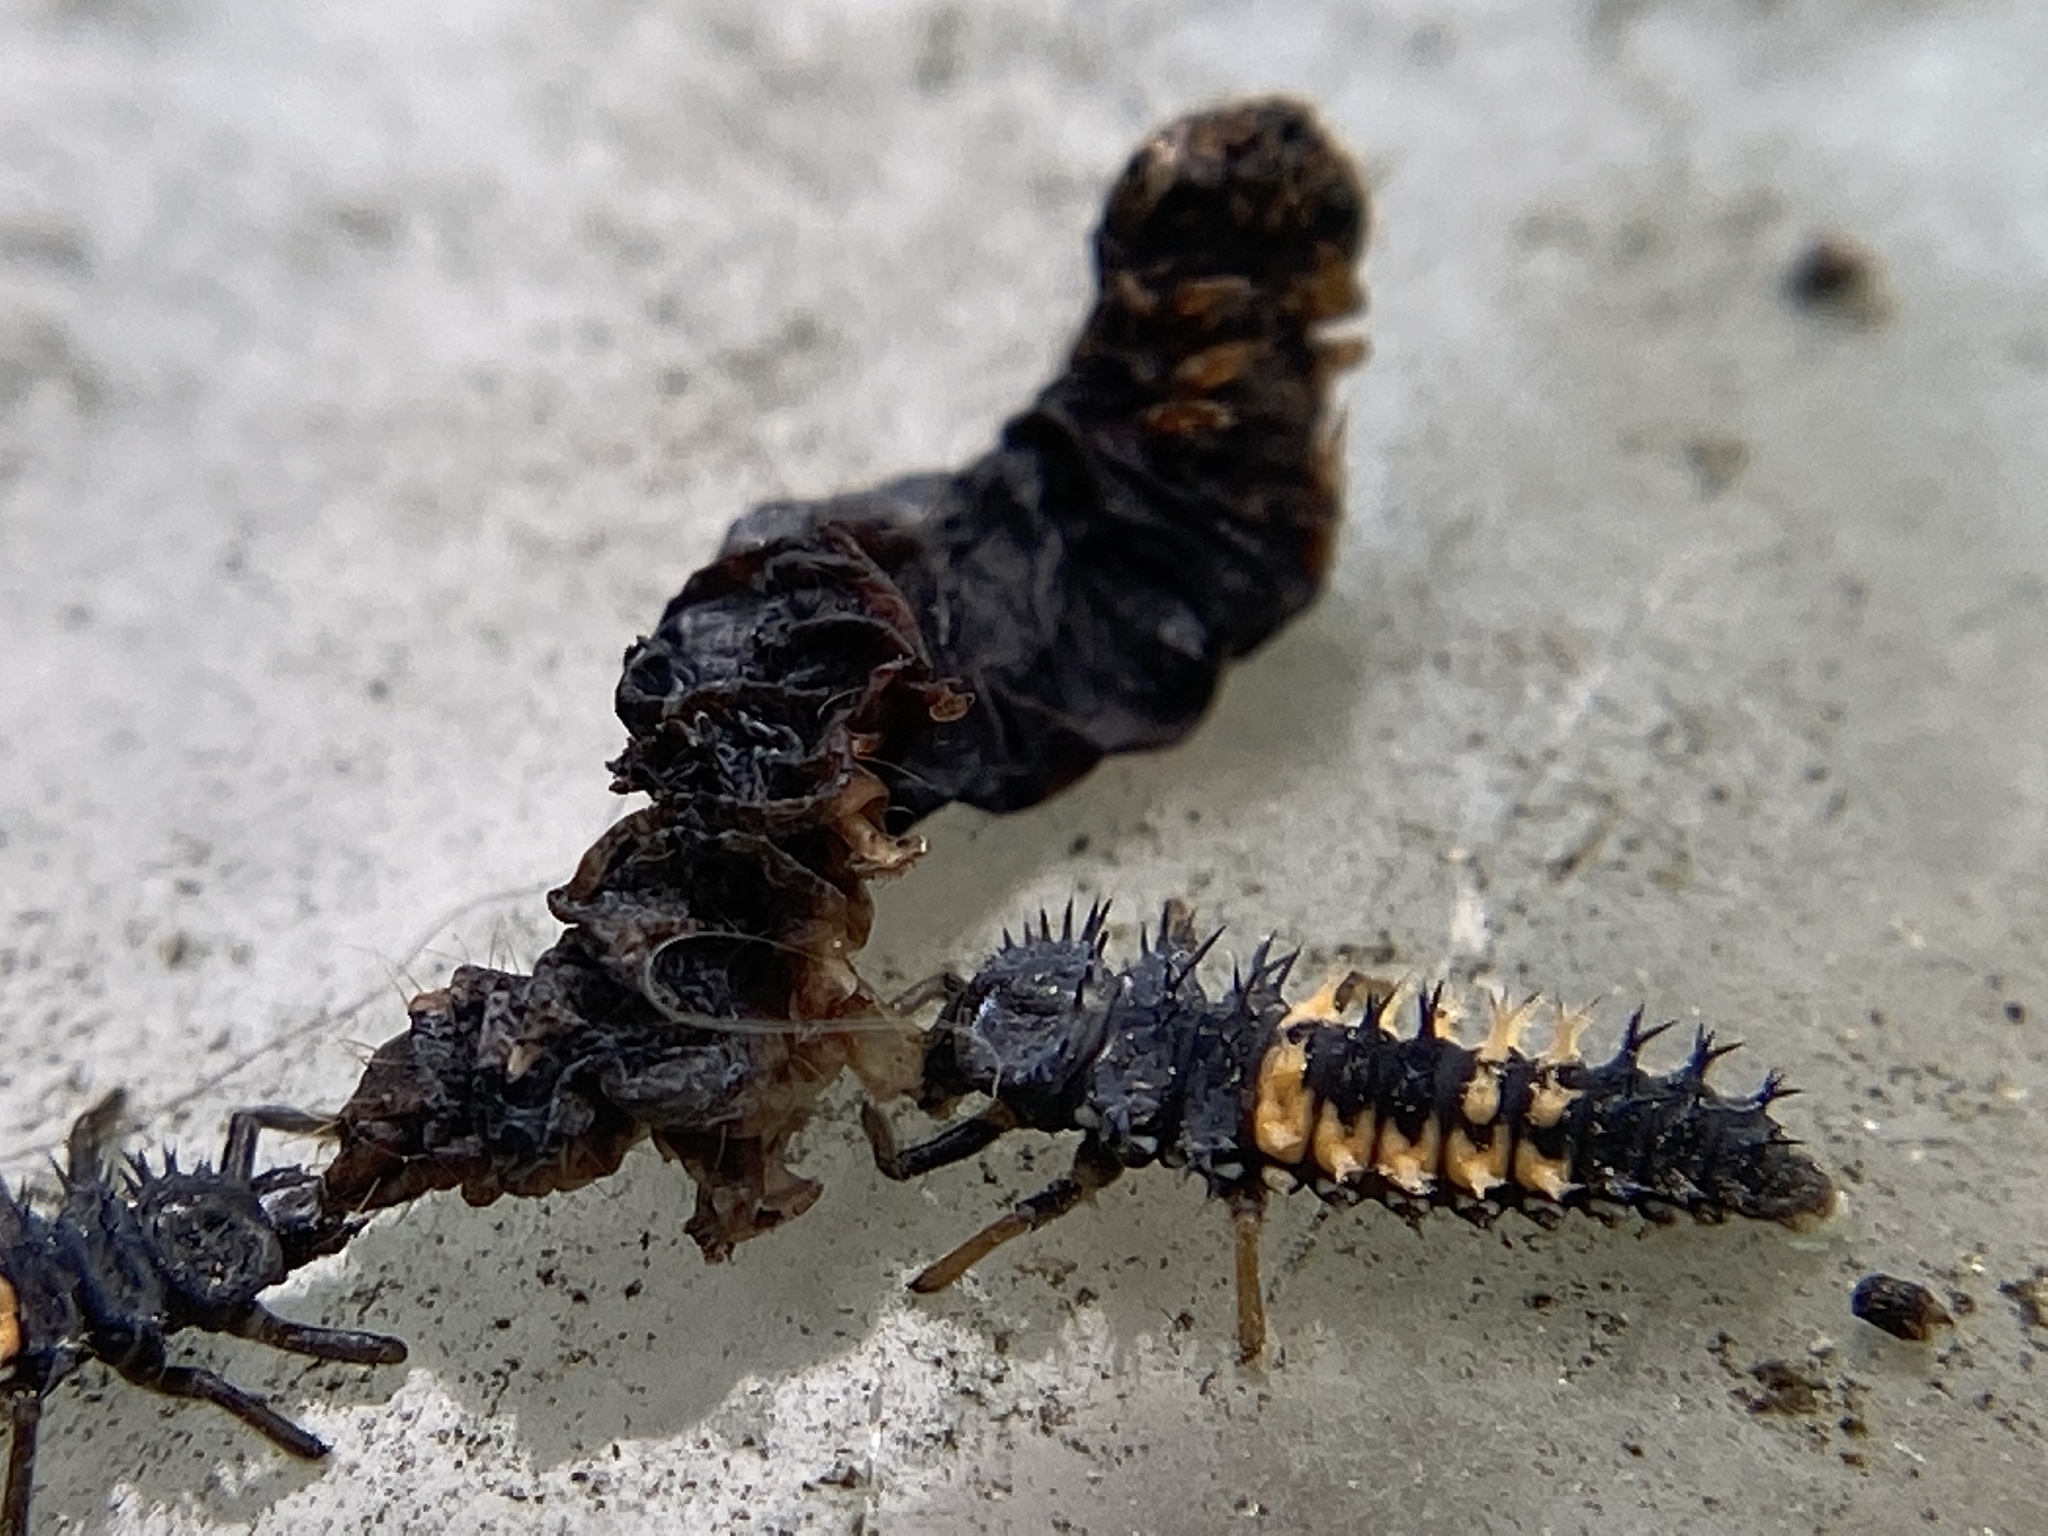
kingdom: Animalia
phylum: Arthropoda
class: Insecta
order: Coleoptera
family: Coccinellidae
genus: Harmonia
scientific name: Harmonia axyridis
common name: Harlequin ladybird
